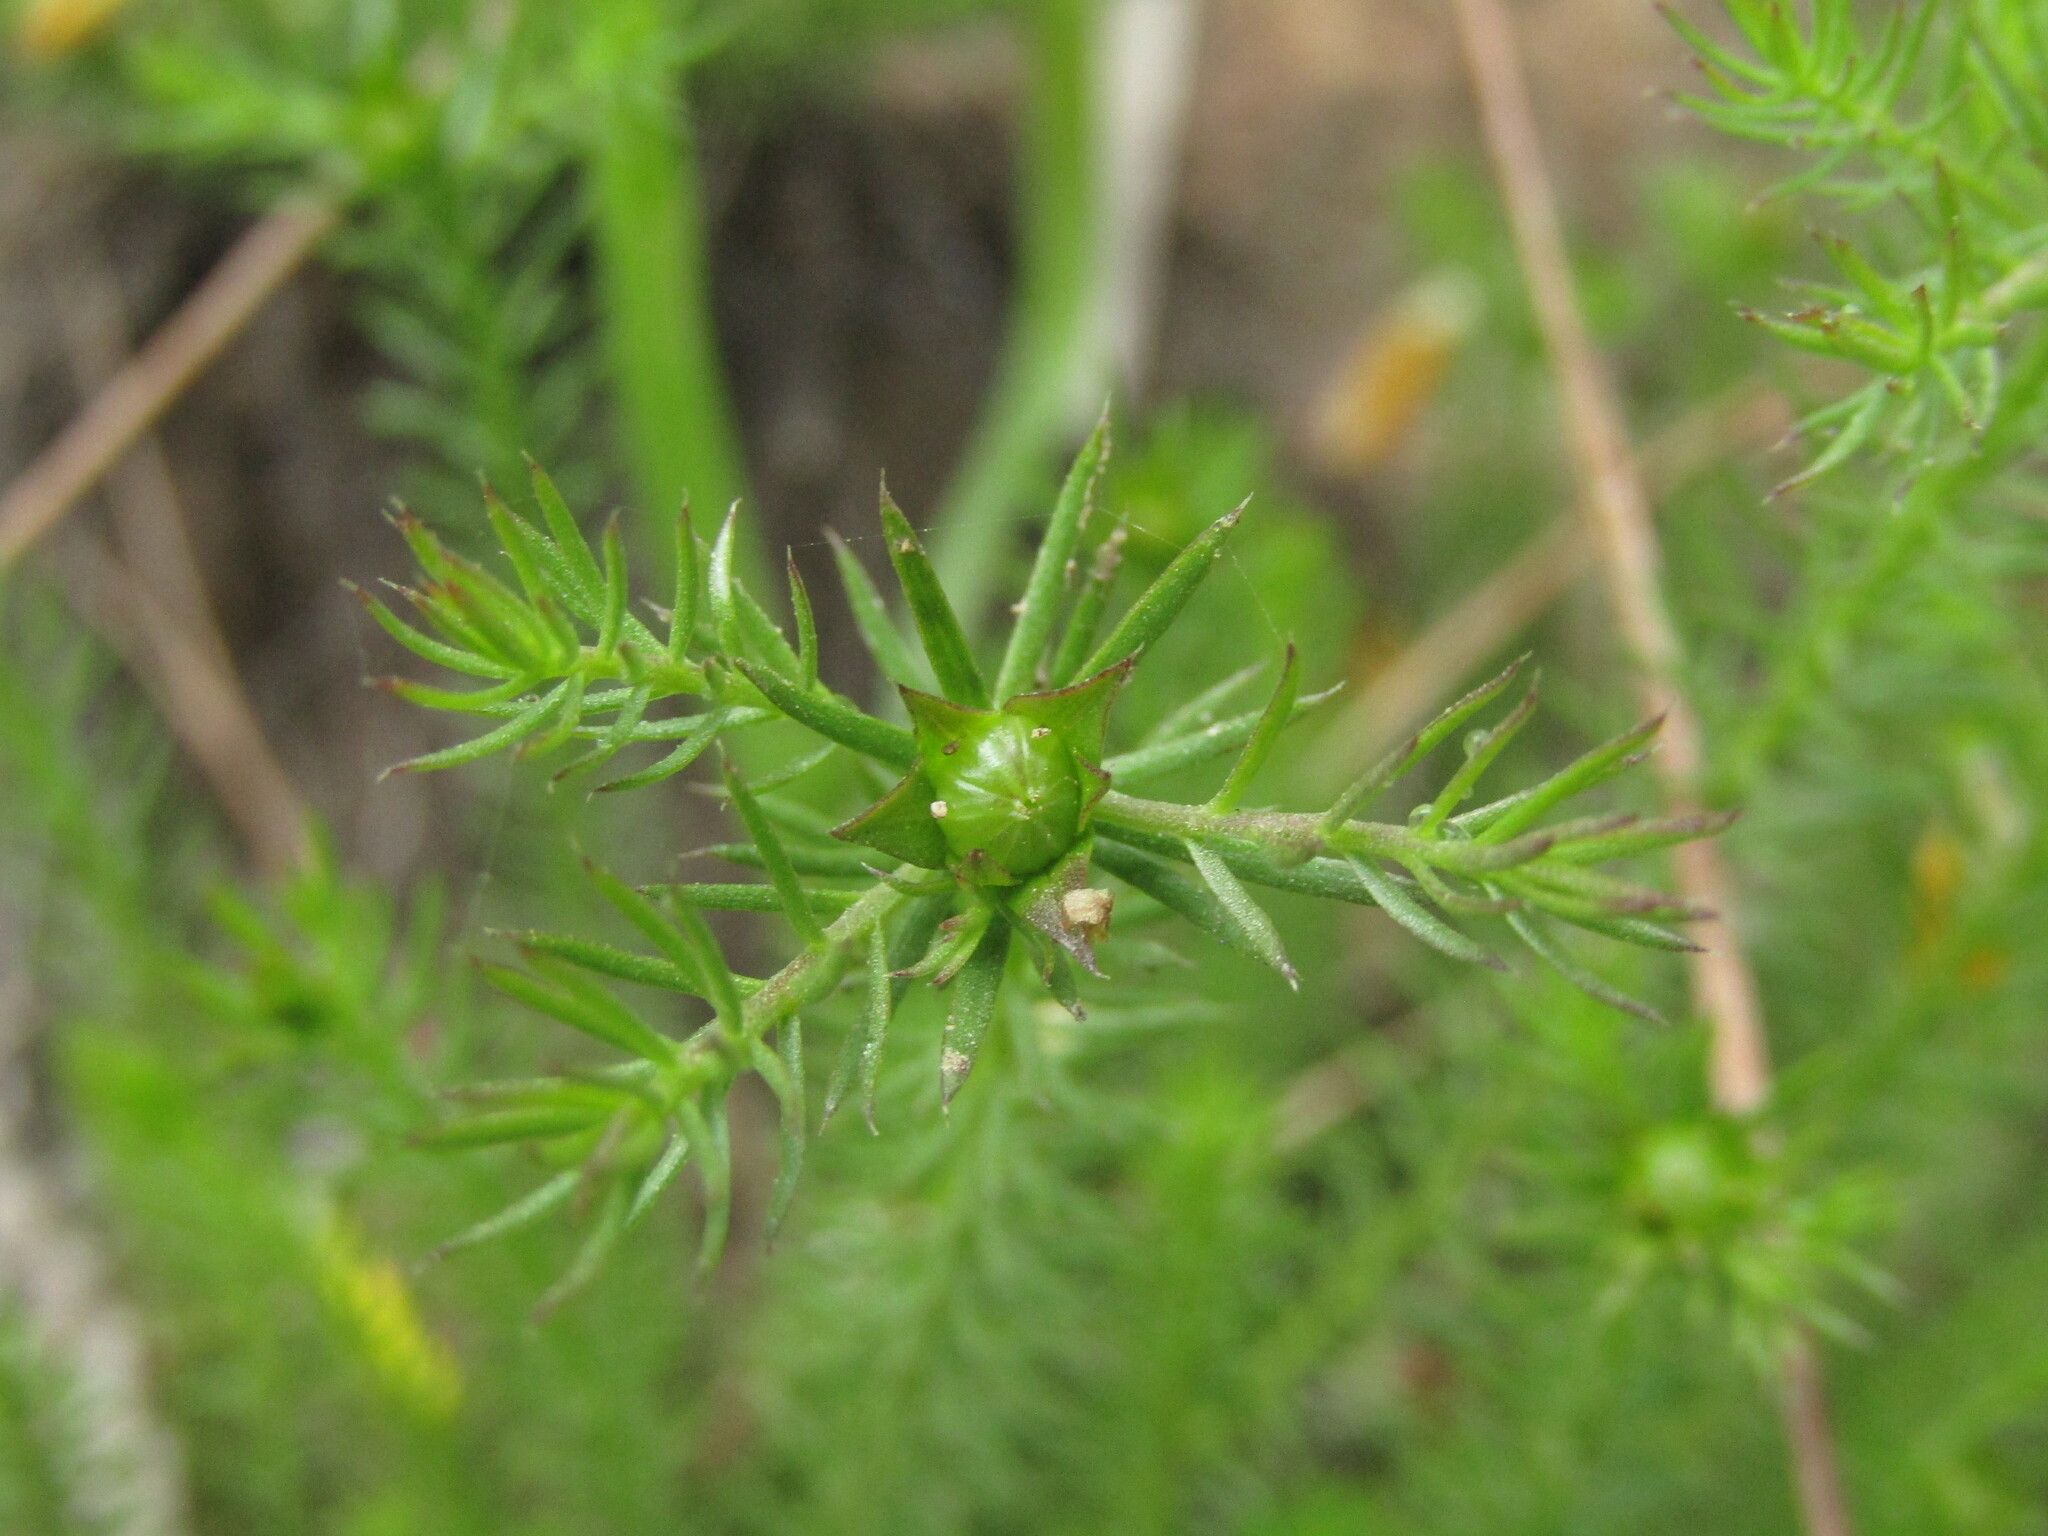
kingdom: Plantae
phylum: Tracheophyta
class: Magnoliopsida
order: Malpighiales
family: Linaceae
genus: Cliococca
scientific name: Cliococca selaginoides
